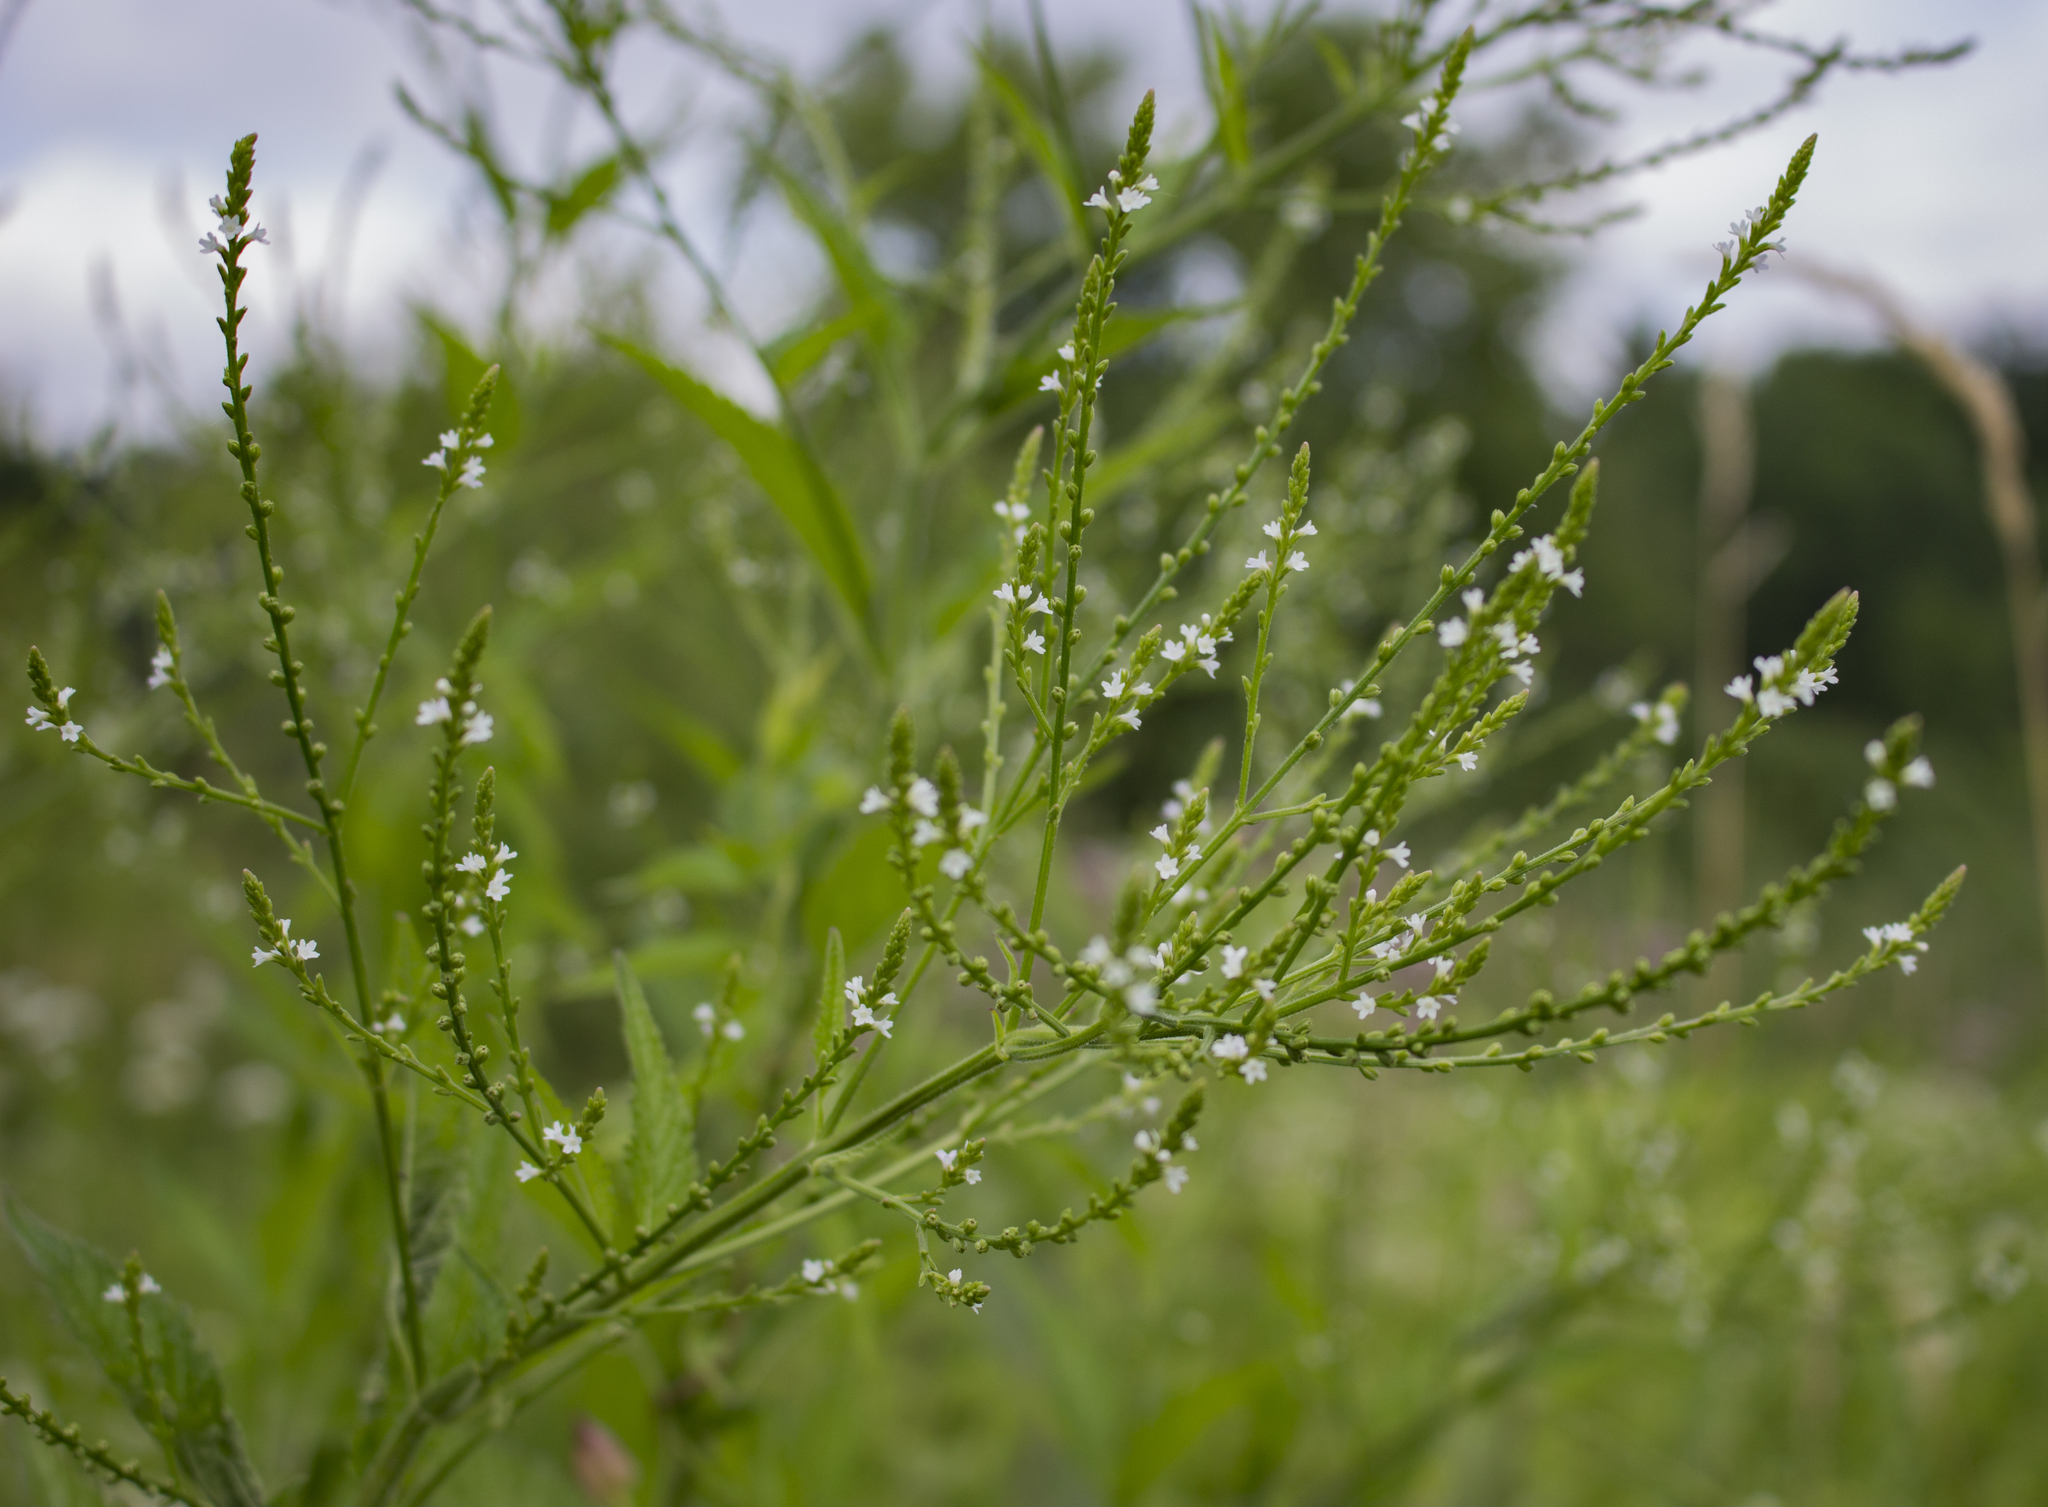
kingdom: Plantae
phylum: Tracheophyta
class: Magnoliopsida
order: Lamiales
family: Verbenaceae
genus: Verbena
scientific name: Verbena urticifolia
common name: Nettle-leaved vervain
